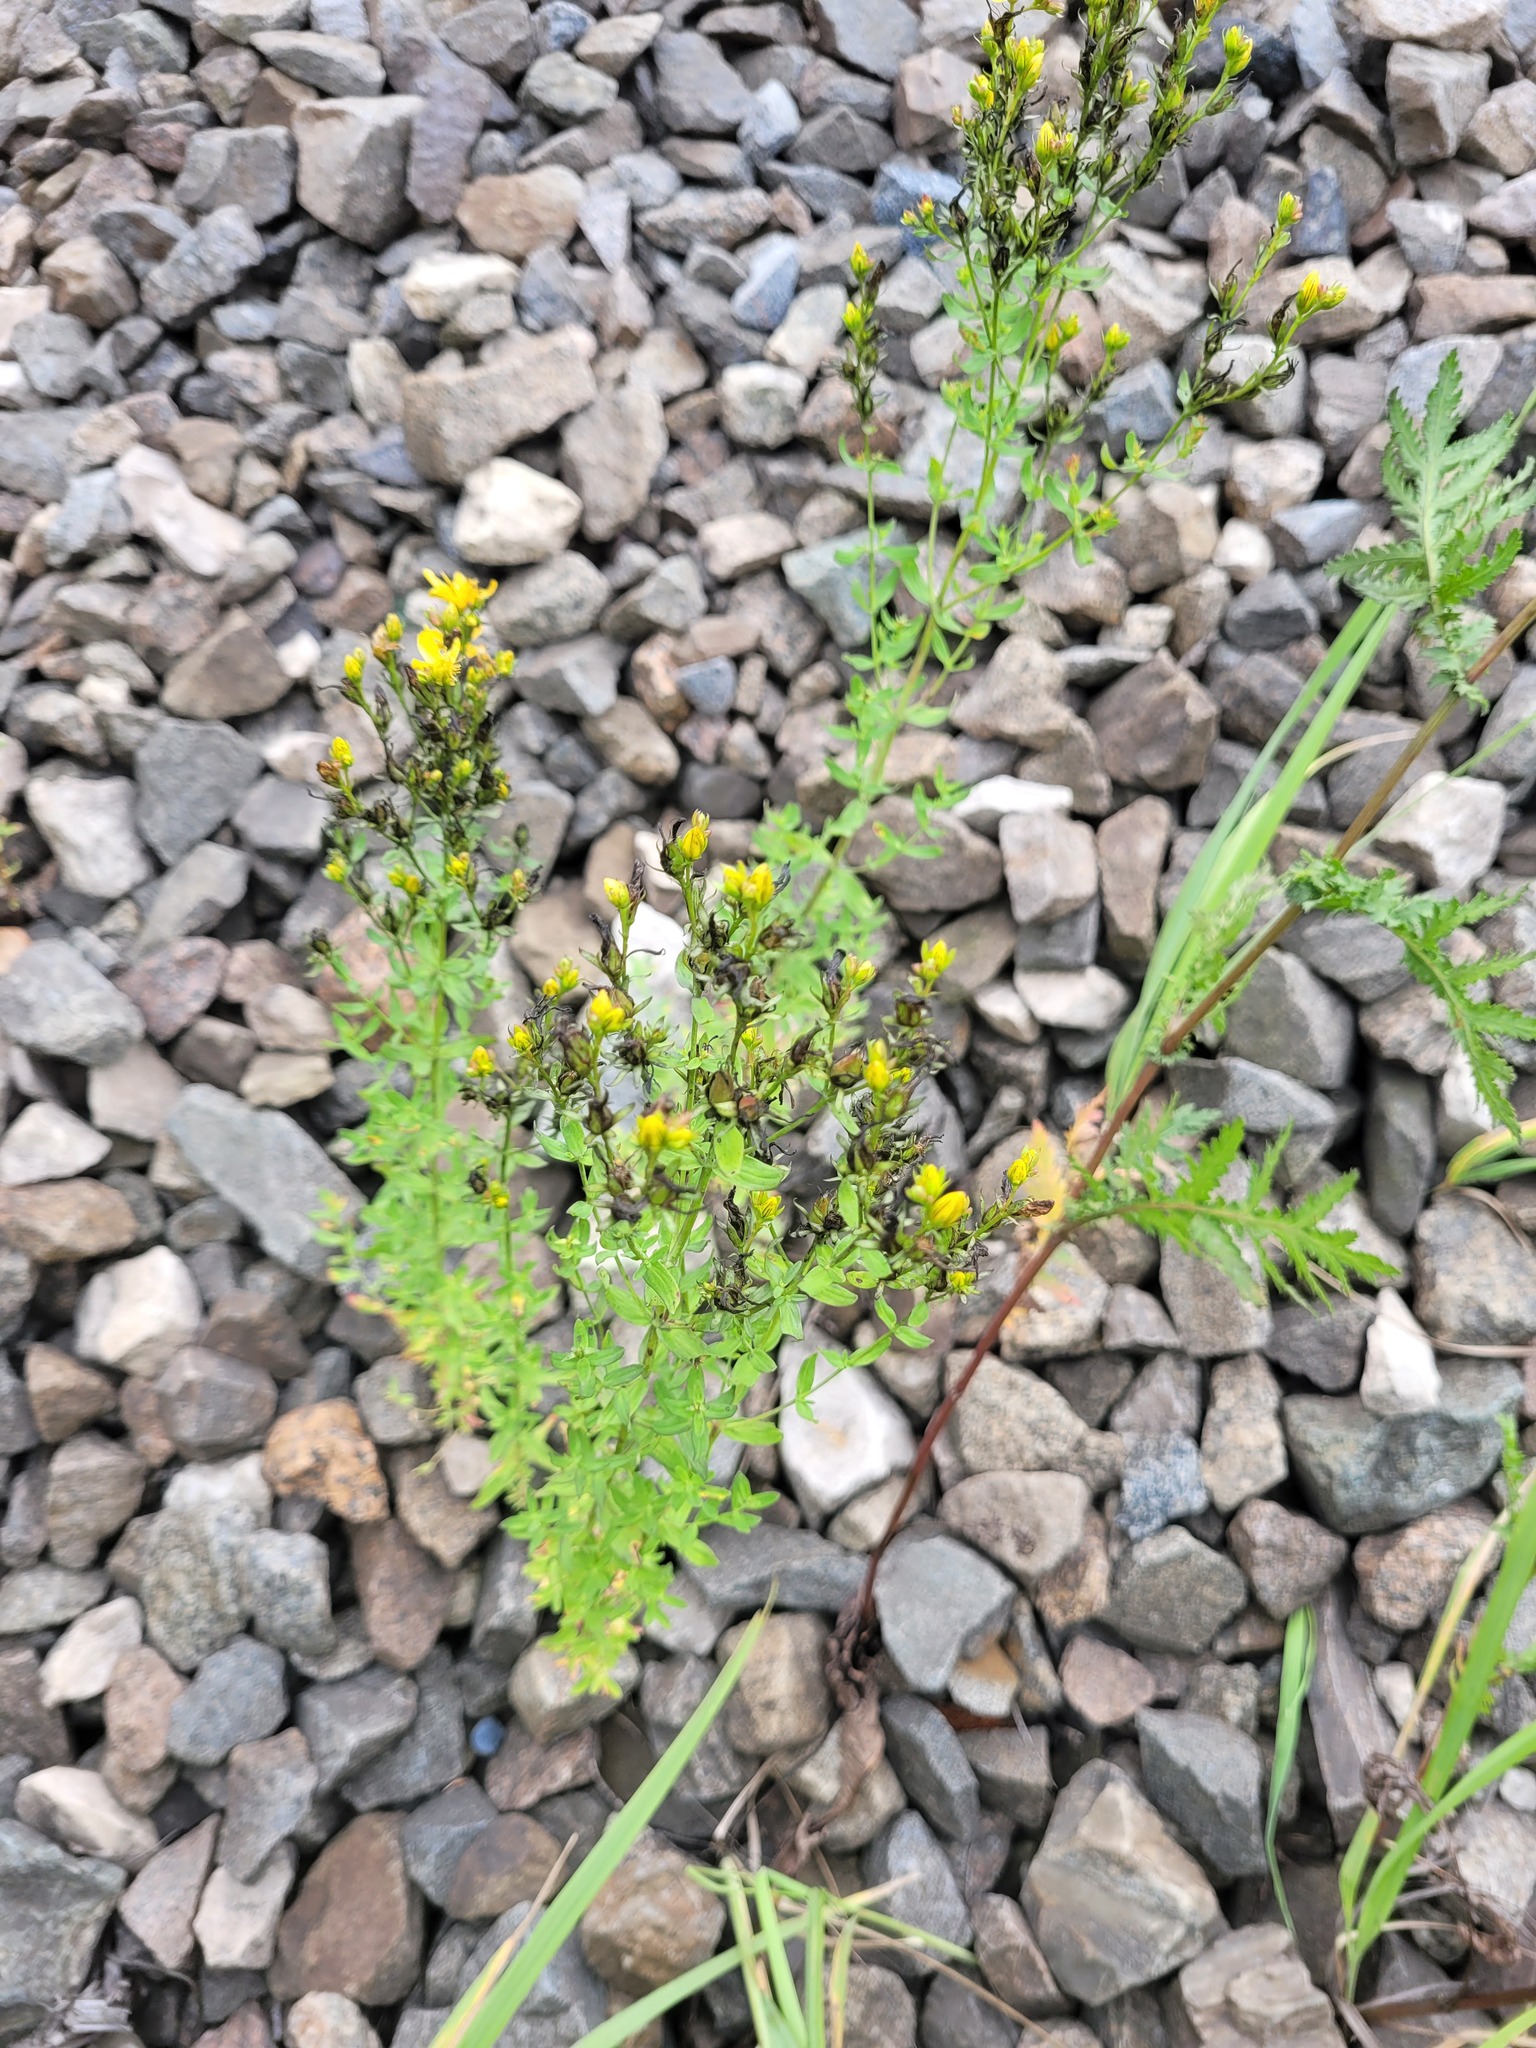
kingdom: Plantae
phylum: Tracheophyta
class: Magnoliopsida
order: Malpighiales
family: Hypericaceae
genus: Hypericum
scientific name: Hypericum perforatum
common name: Common st. johnswort
